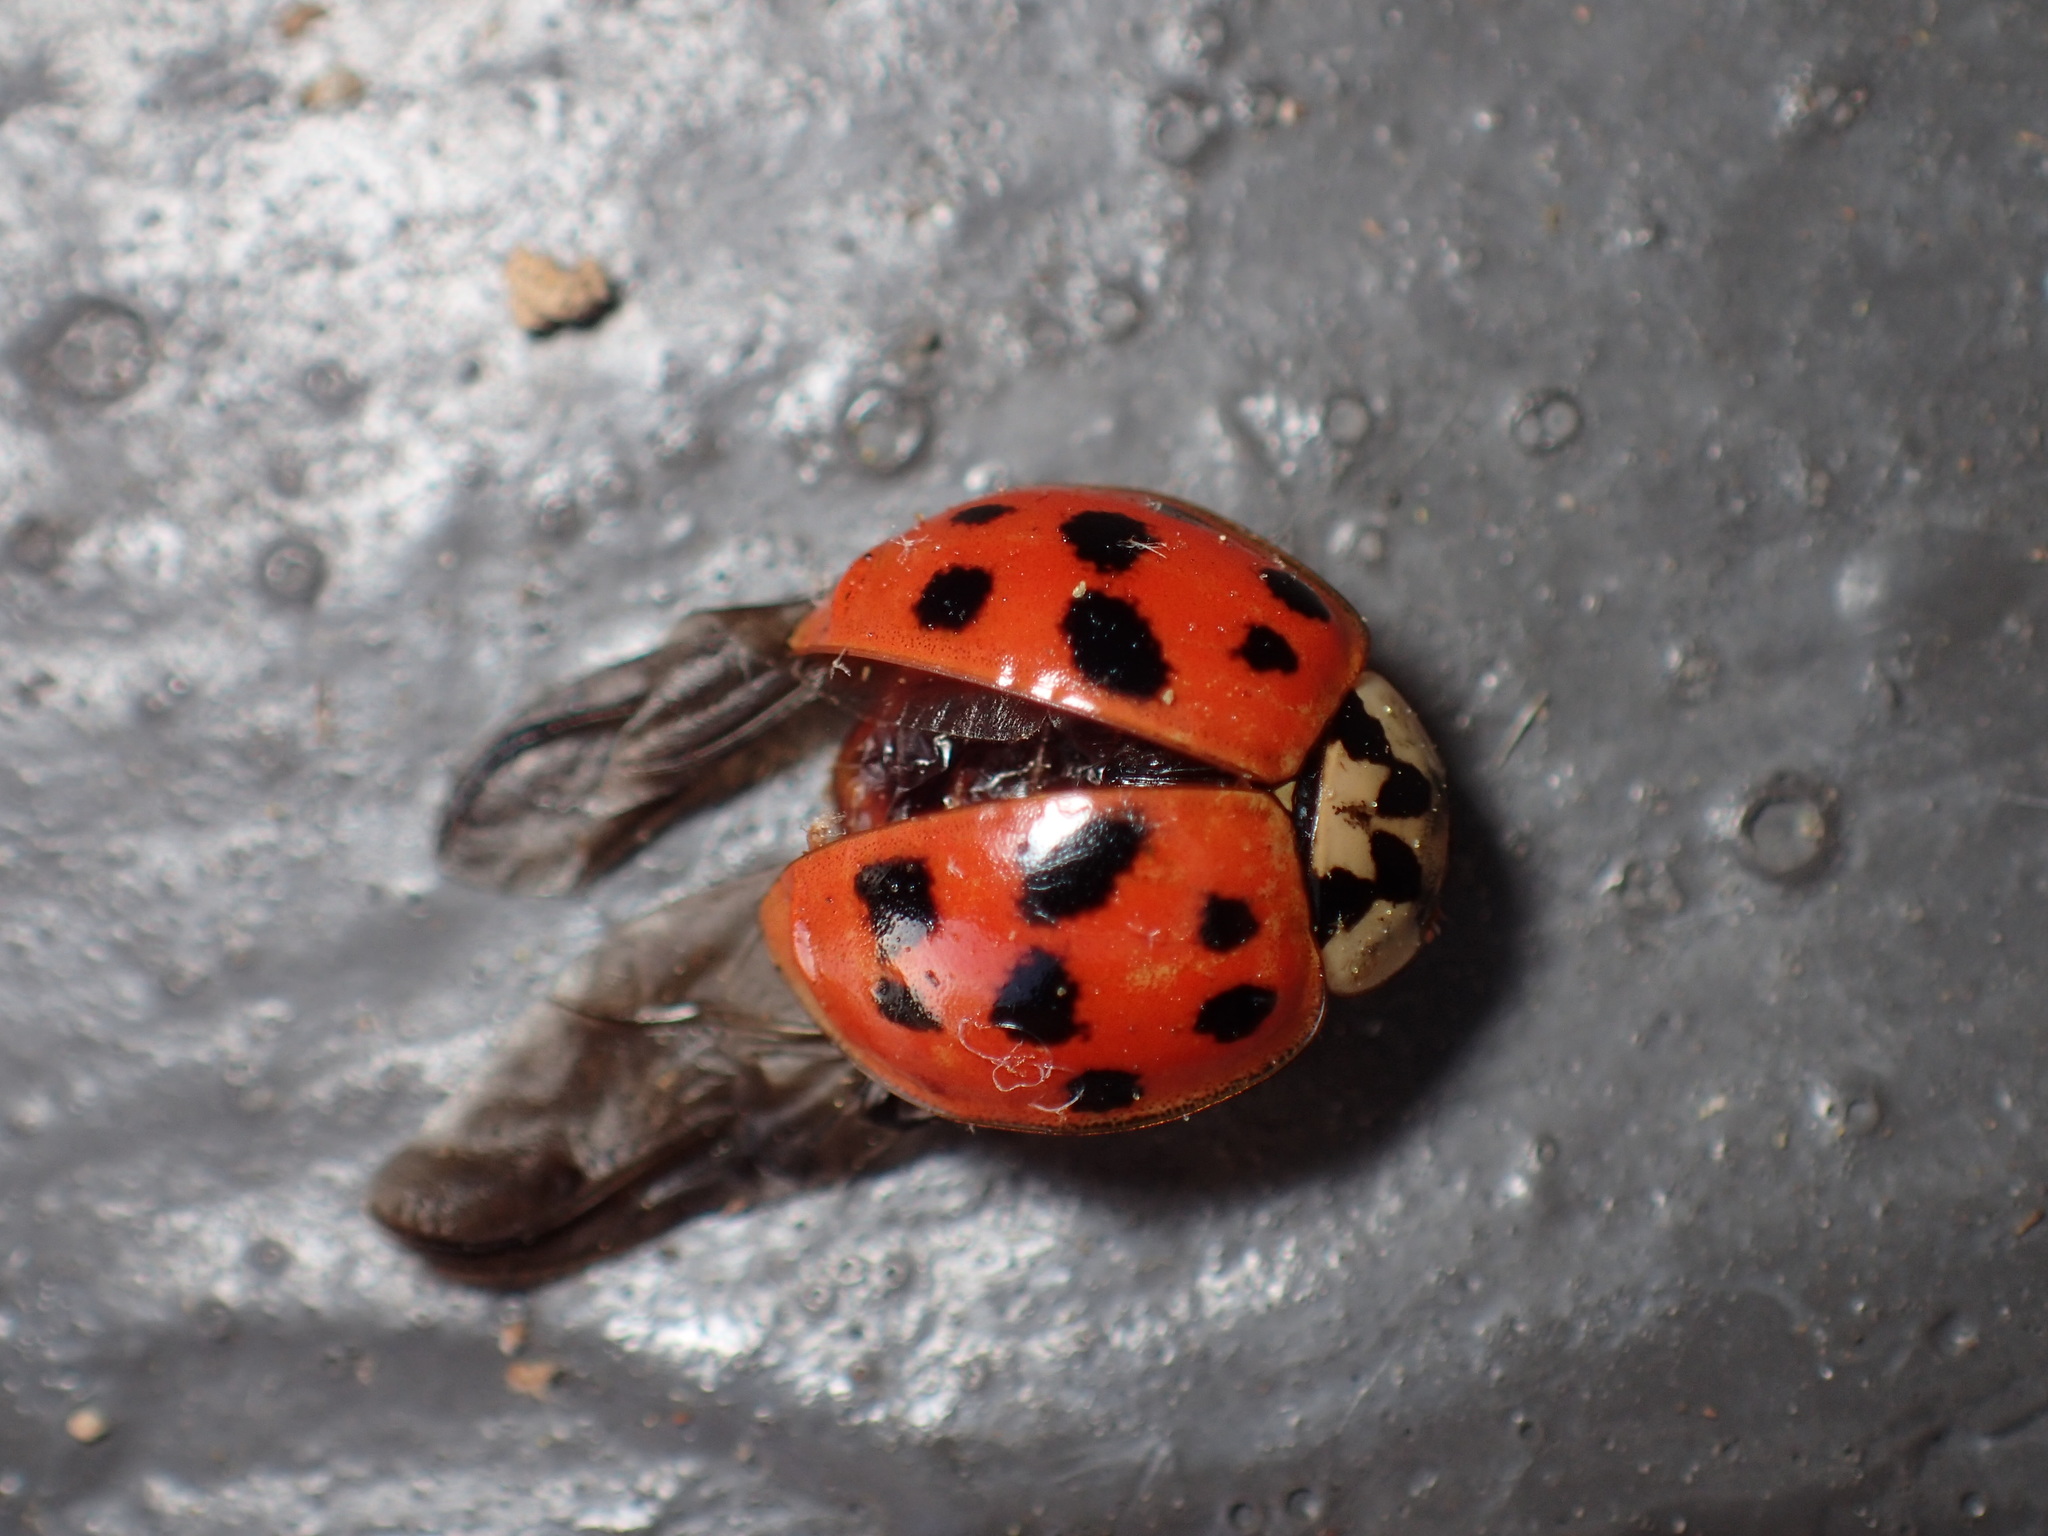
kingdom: Animalia
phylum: Arthropoda
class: Insecta
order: Coleoptera
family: Coccinellidae
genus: Harmonia
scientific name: Harmonia axyridis
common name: Harlequin ladybird
